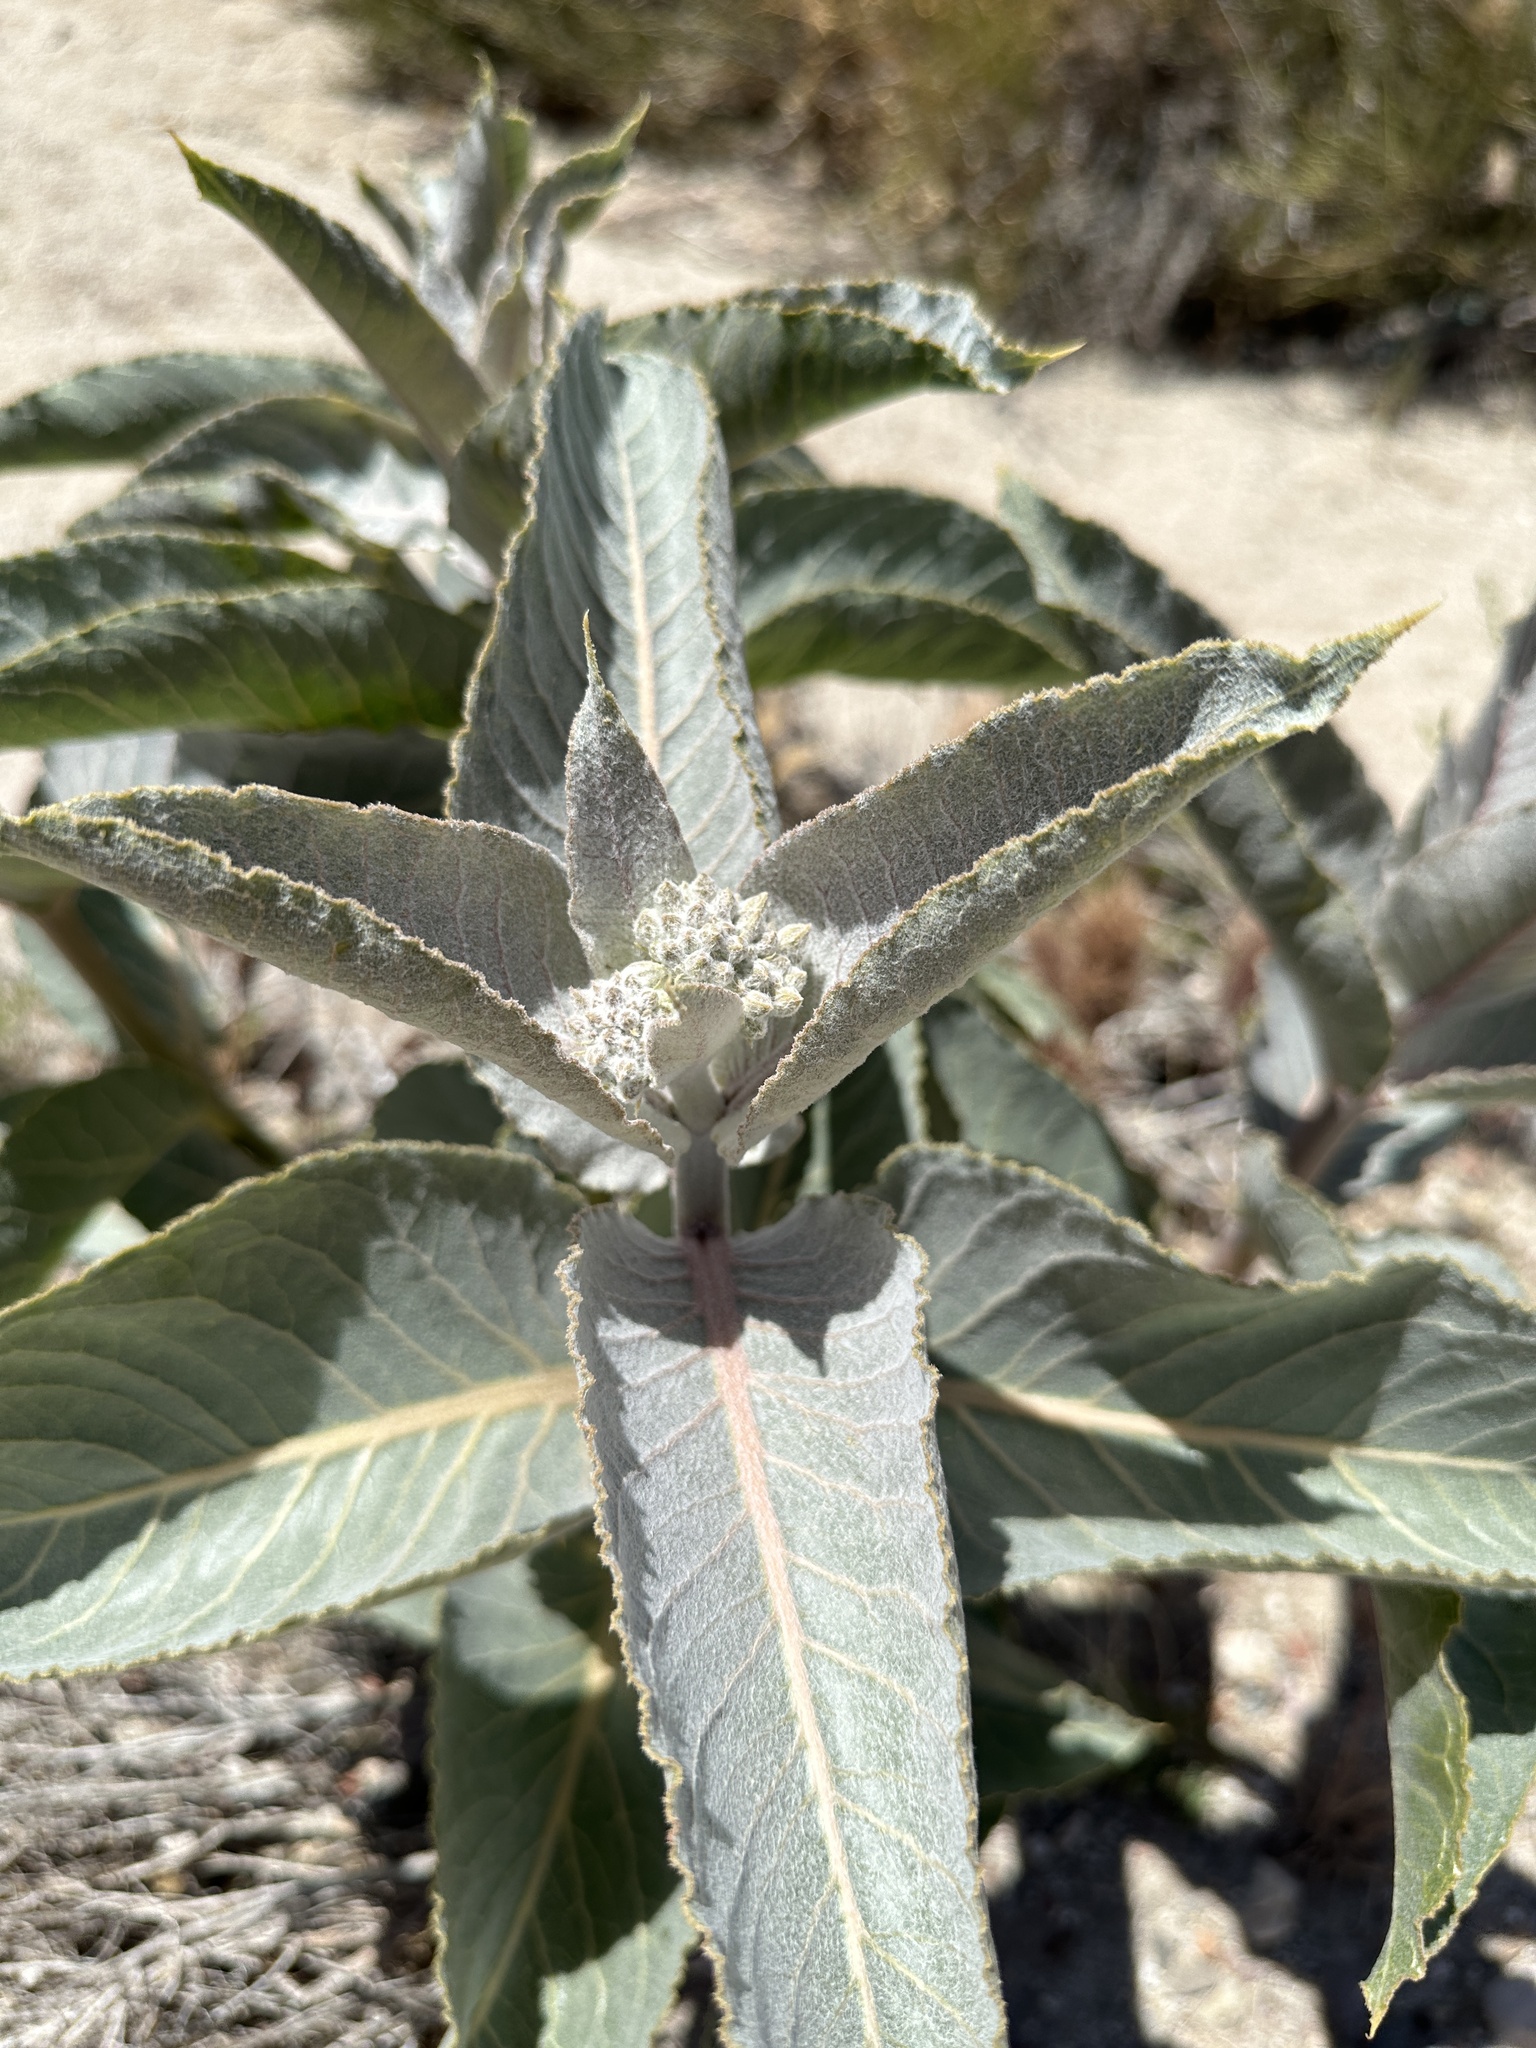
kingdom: Plantae
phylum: Tracheophyta
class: Magnoliopsida
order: Gentianales
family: Apocynaceae
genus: Asclepias
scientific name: Asclepias erosa
